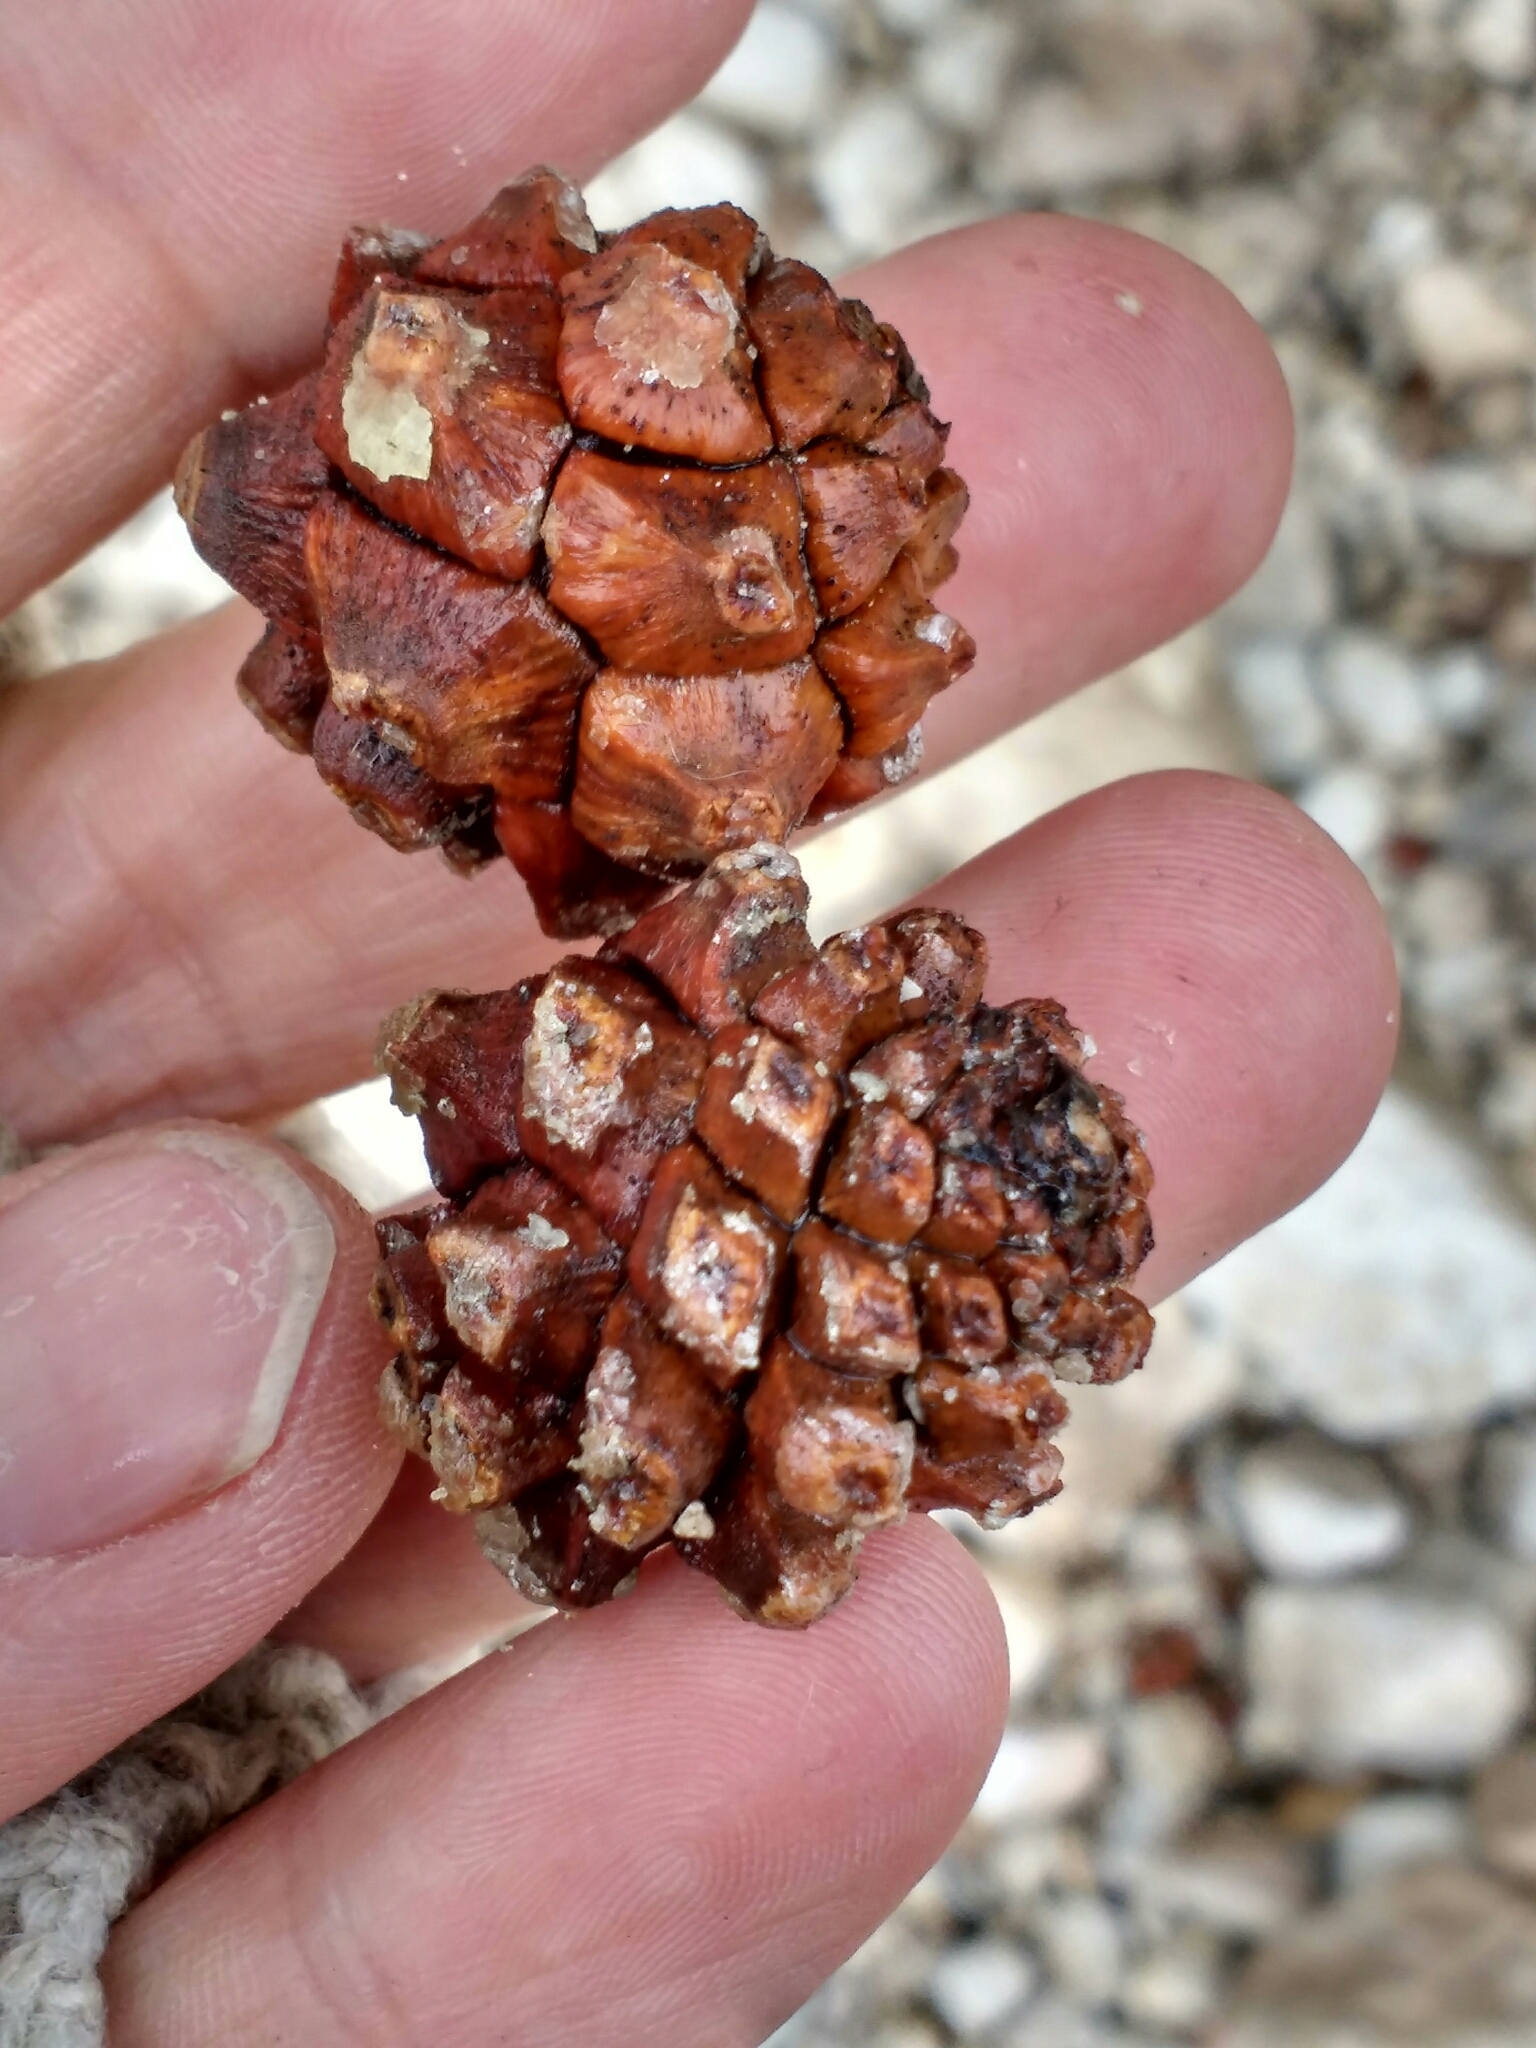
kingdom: Plantae
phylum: Tracheophyta
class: Pinopsida
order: Pinales
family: Pinaceae
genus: Pinus
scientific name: Pinus edulis
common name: Colorado pinyon
